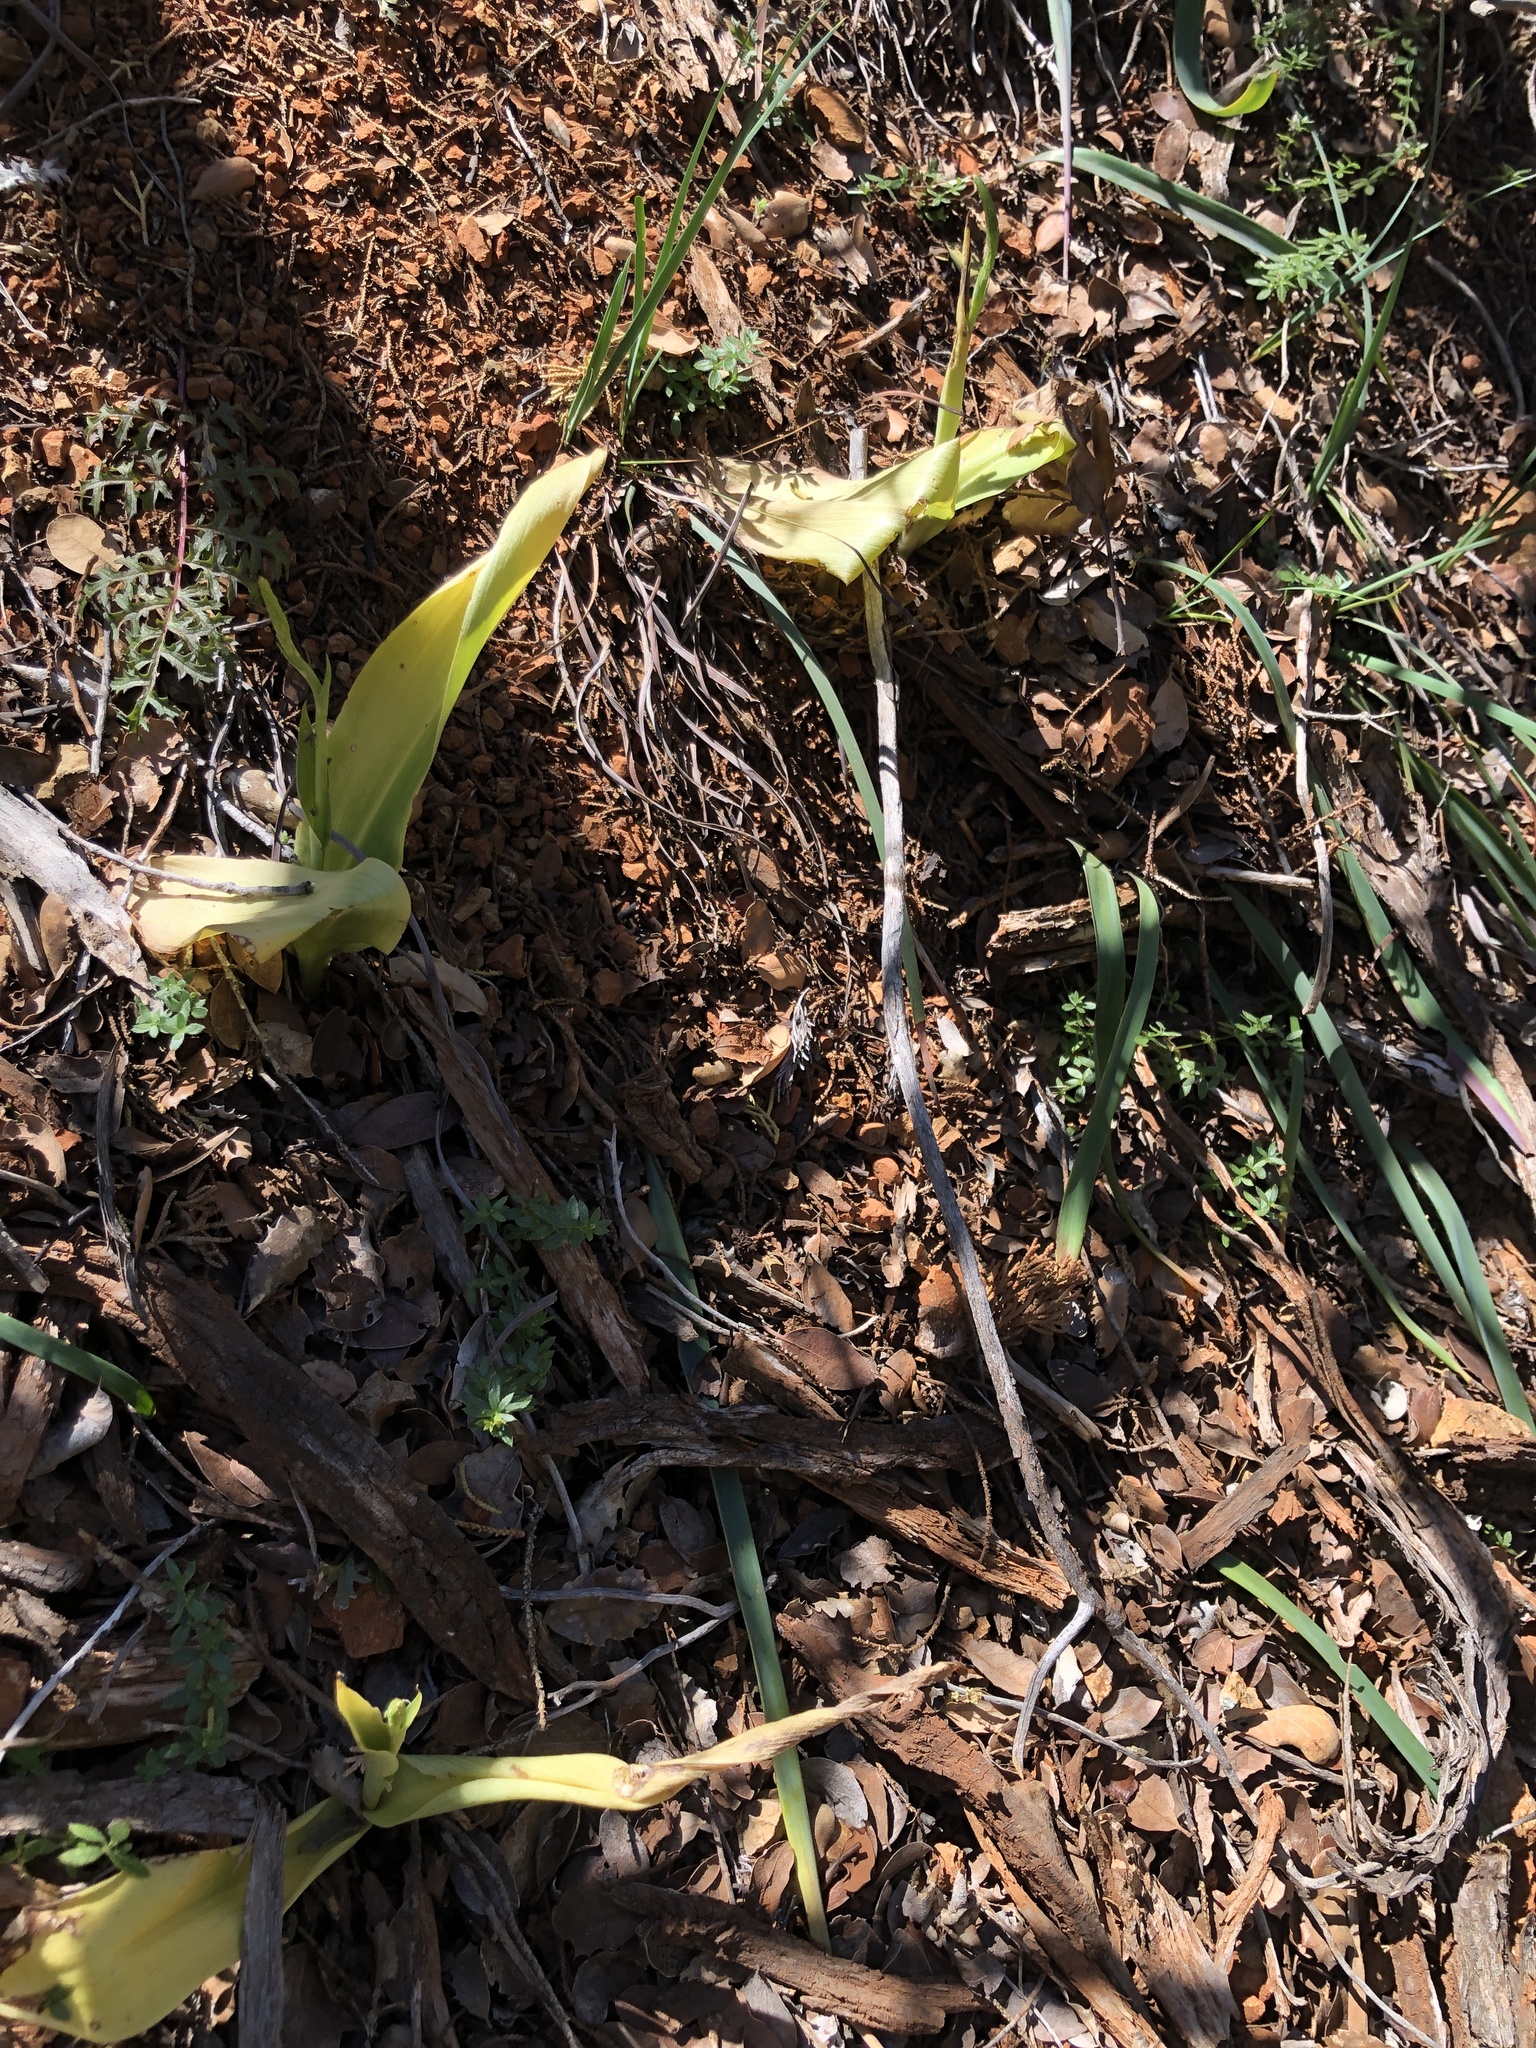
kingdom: Plantae
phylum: Tracheophyta
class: Liliopsida
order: Asparagales
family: Orchidaceae
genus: Platanthera
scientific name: Platanthera elongata
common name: Dense-flowered rein orchid
